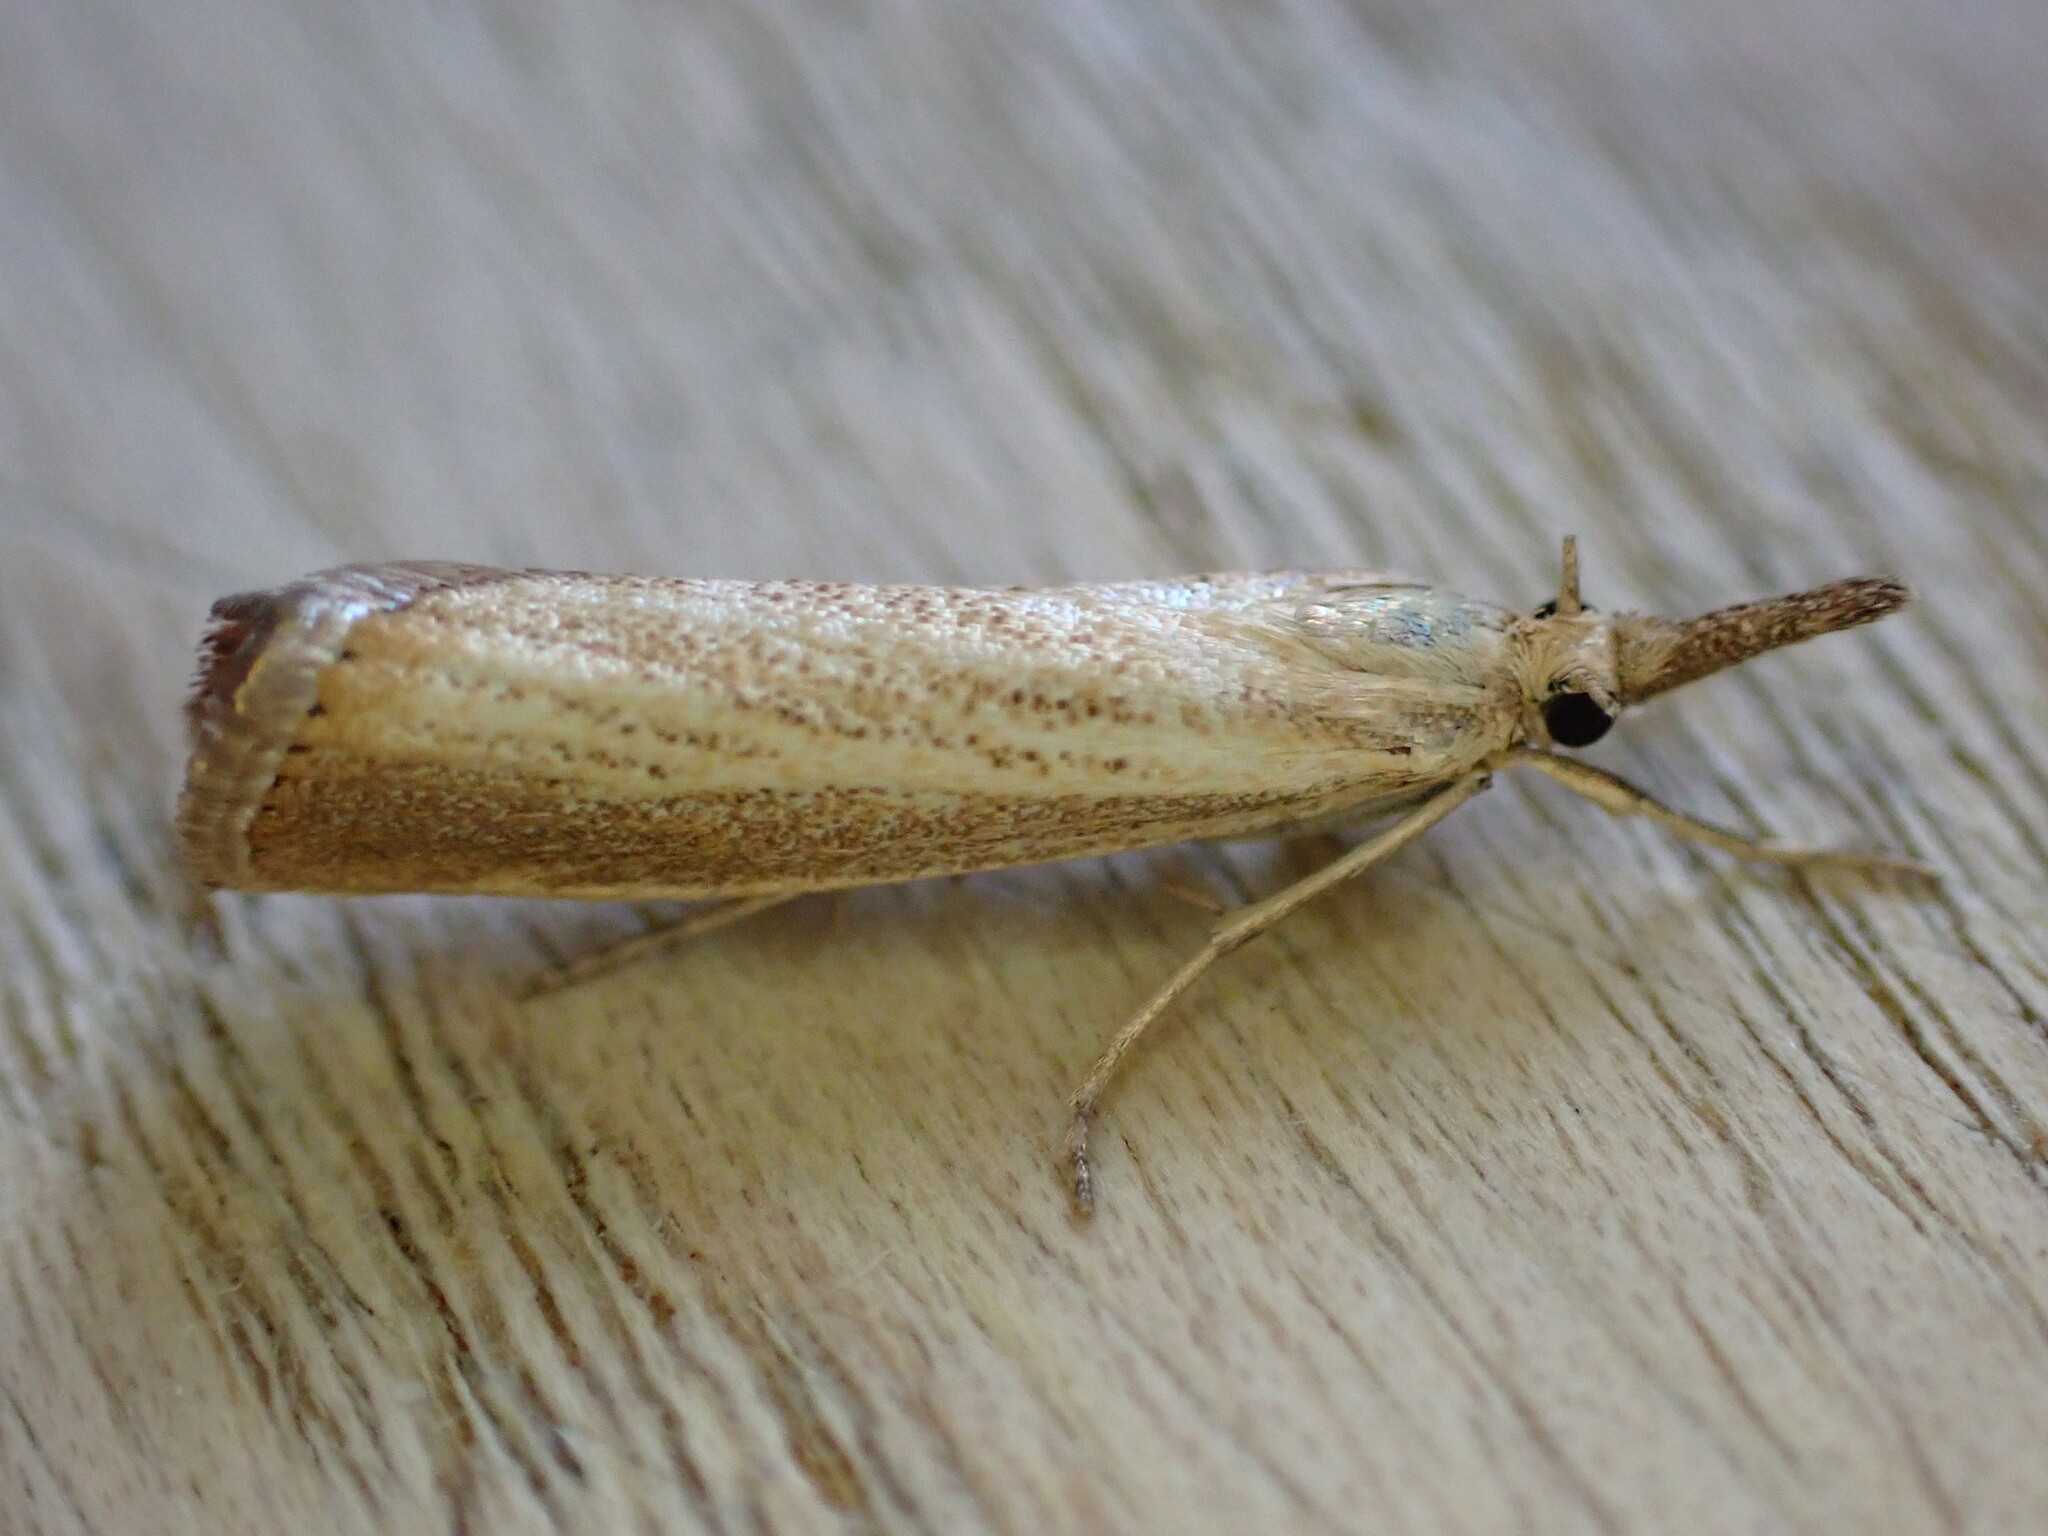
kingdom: Animalia
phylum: Arthropoda
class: Insecta
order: Lepidoptera
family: Crambidae
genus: Agriphila
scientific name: Agriphila straminella
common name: Straw grass-veneer
